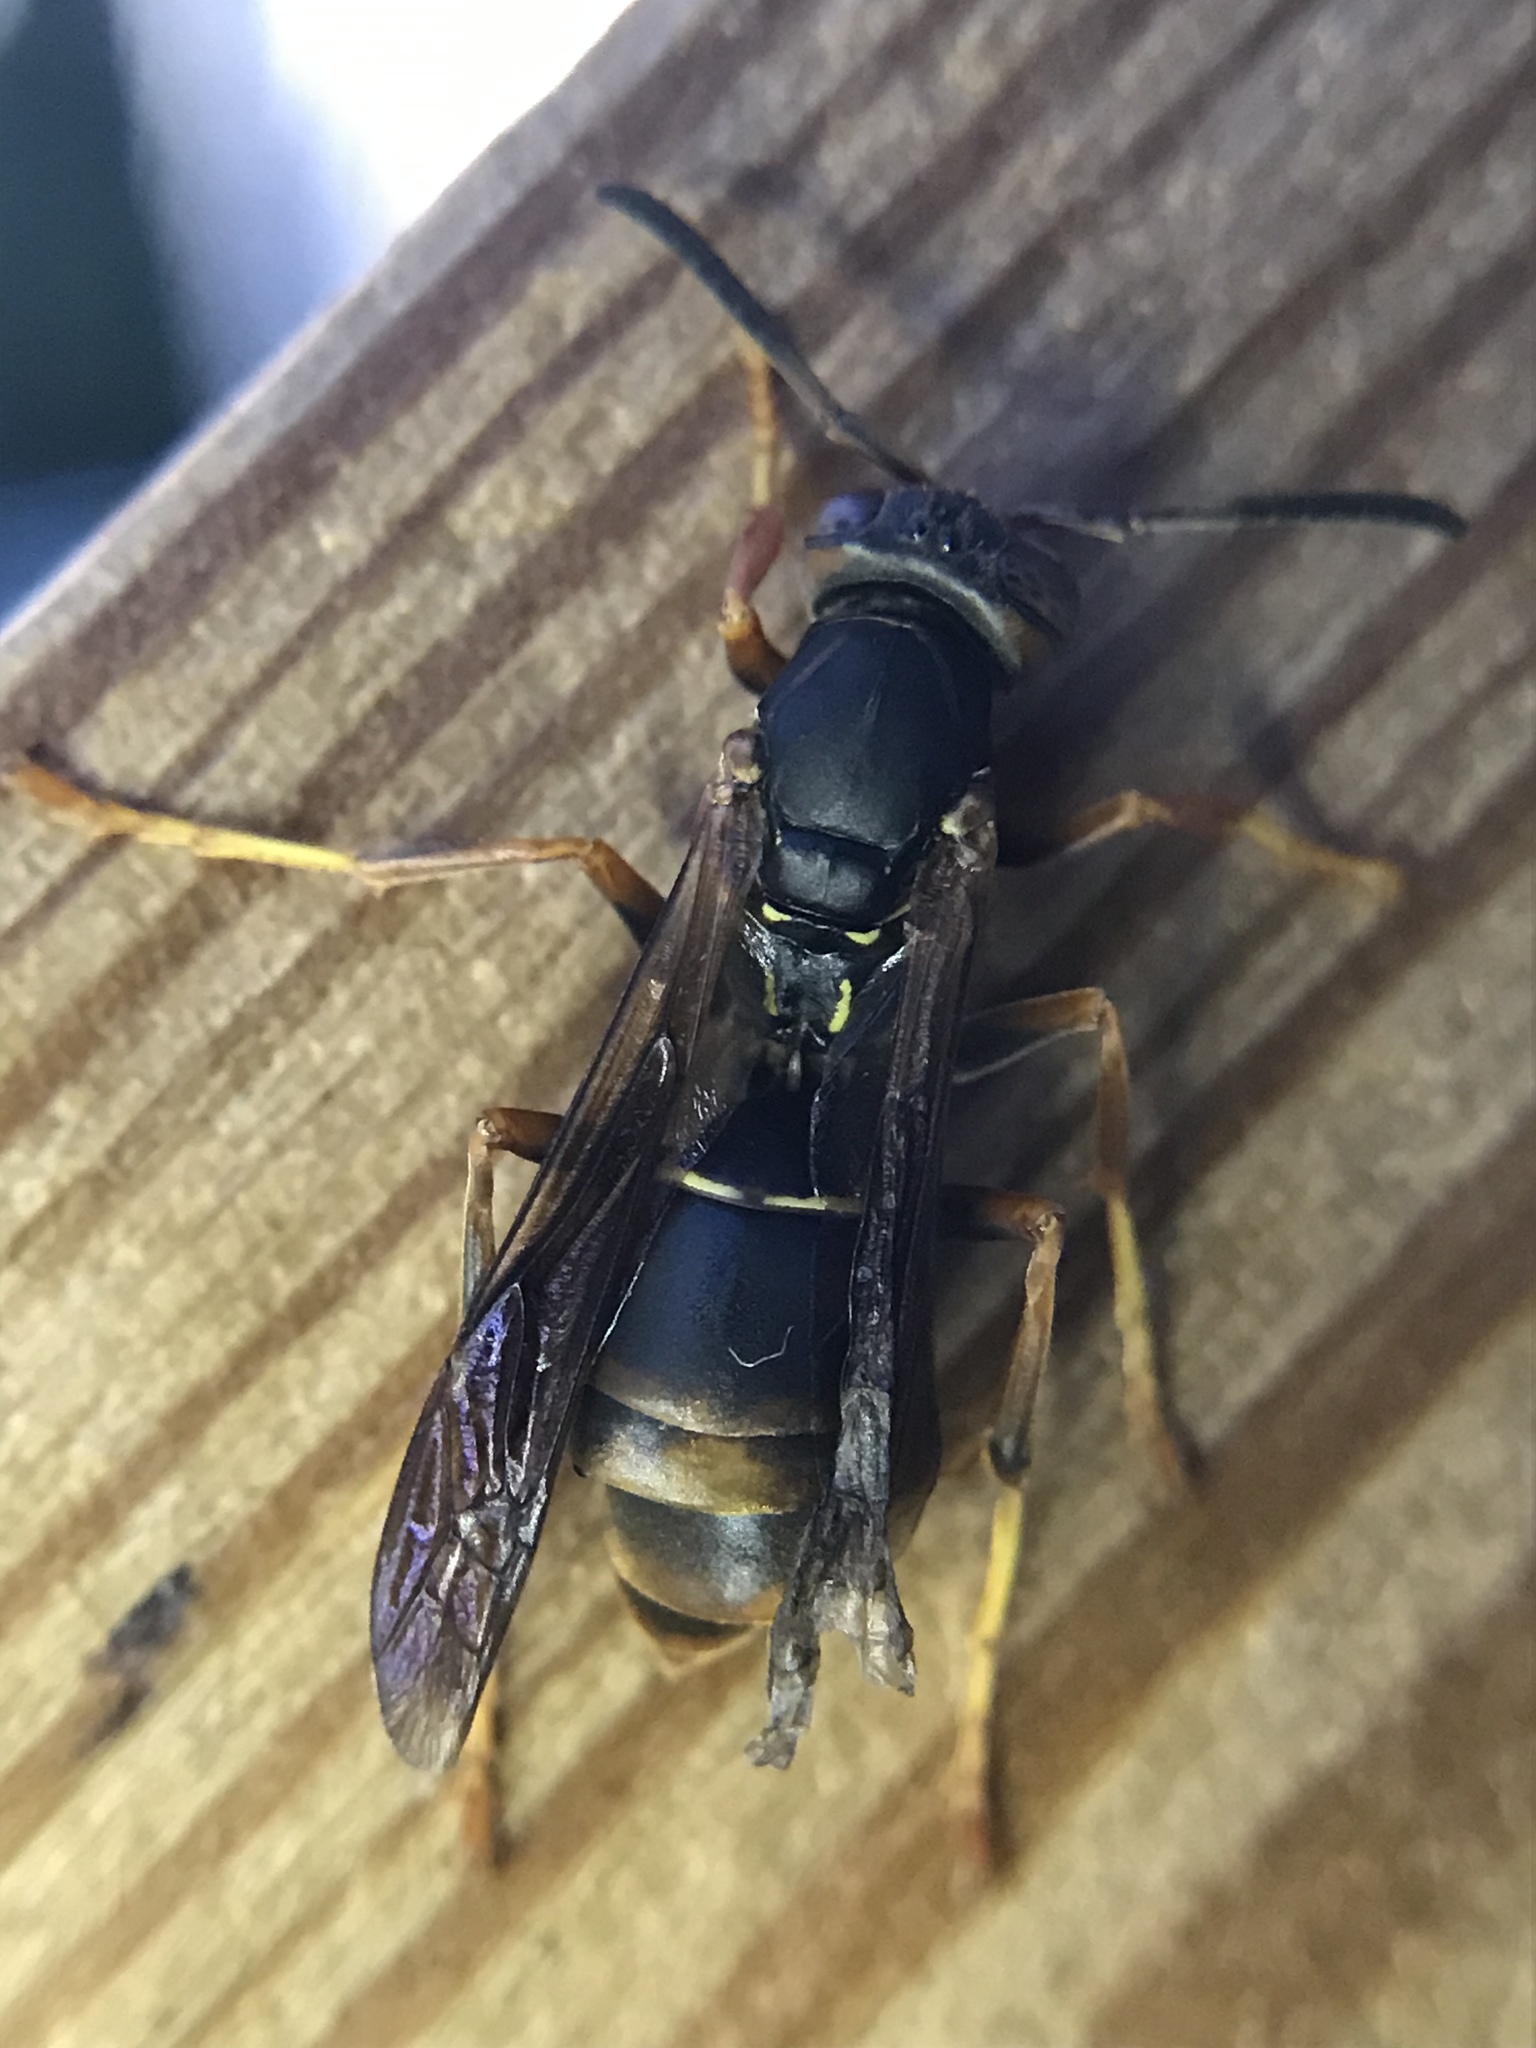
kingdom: Animalia
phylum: Arthropoda
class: Insecta
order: Strepsiptera
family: Xenidae
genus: Xenos
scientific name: Xenos pecki
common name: Twisted wing parasite
